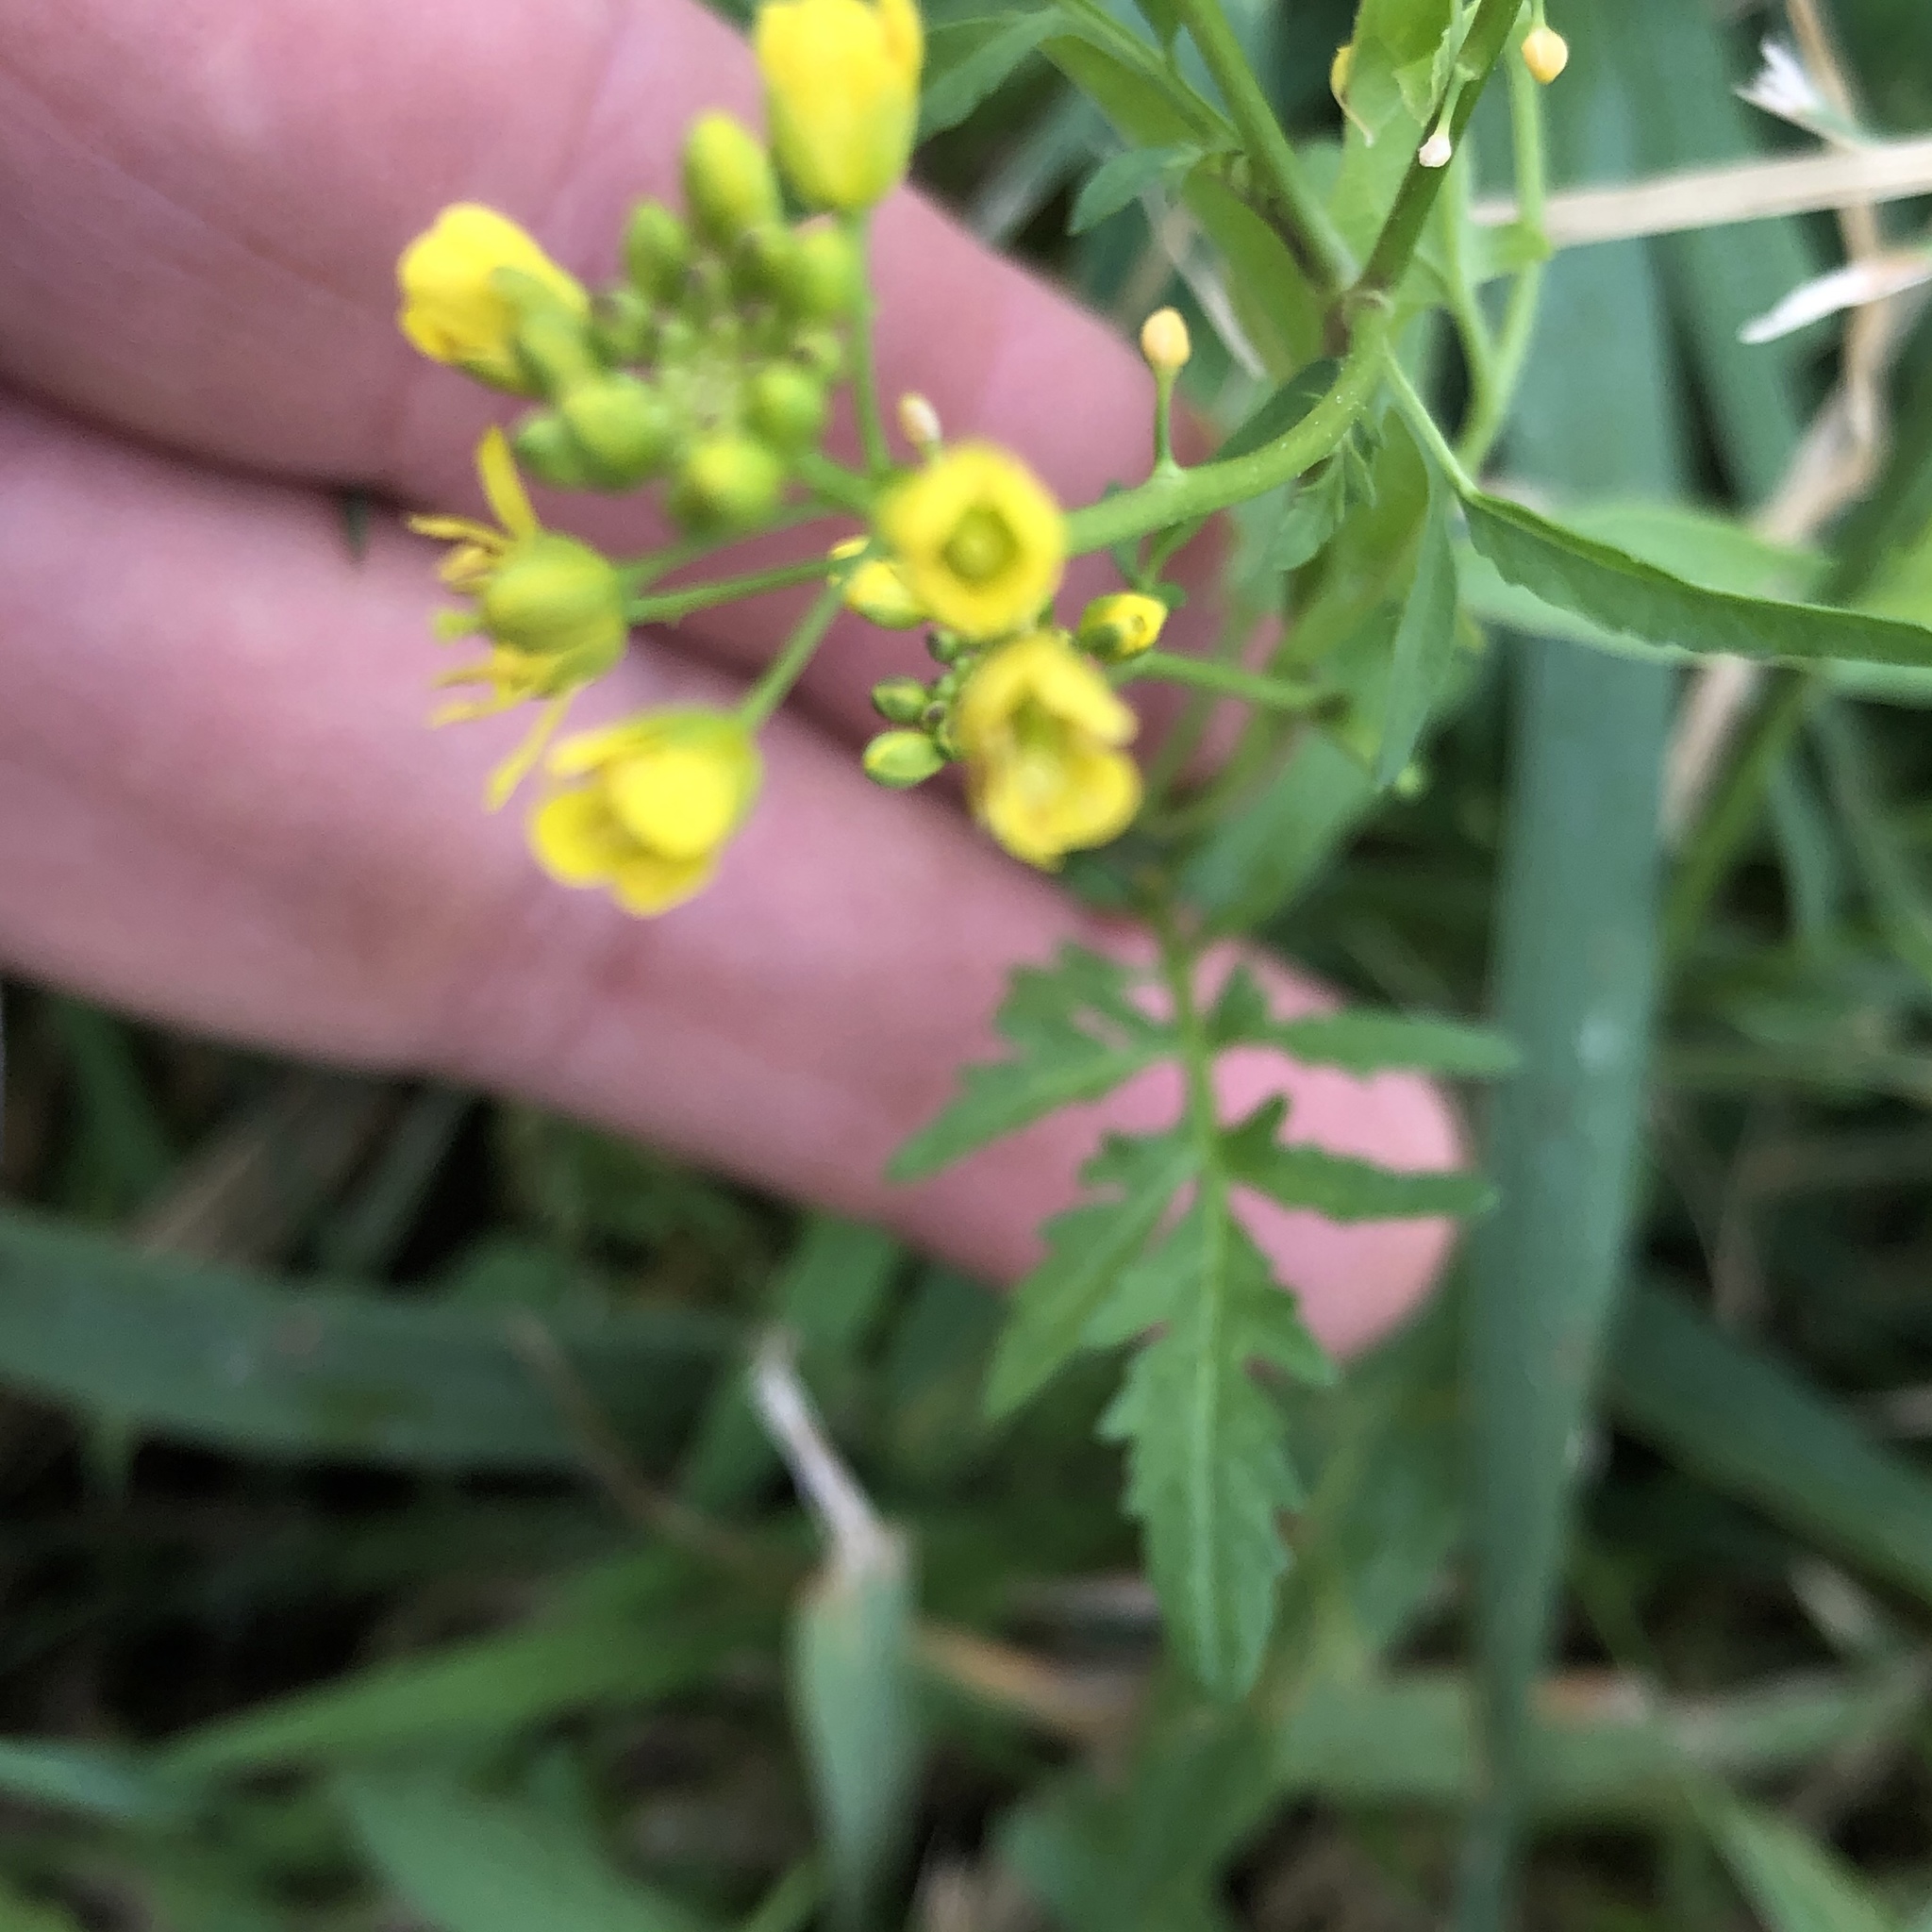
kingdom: Plantae
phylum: Tracheophyta
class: Magnoliopsida
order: Brassicales
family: Brassicaceae
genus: Rorippa
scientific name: Rorippa sylvestris
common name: Creeping yellowcress
